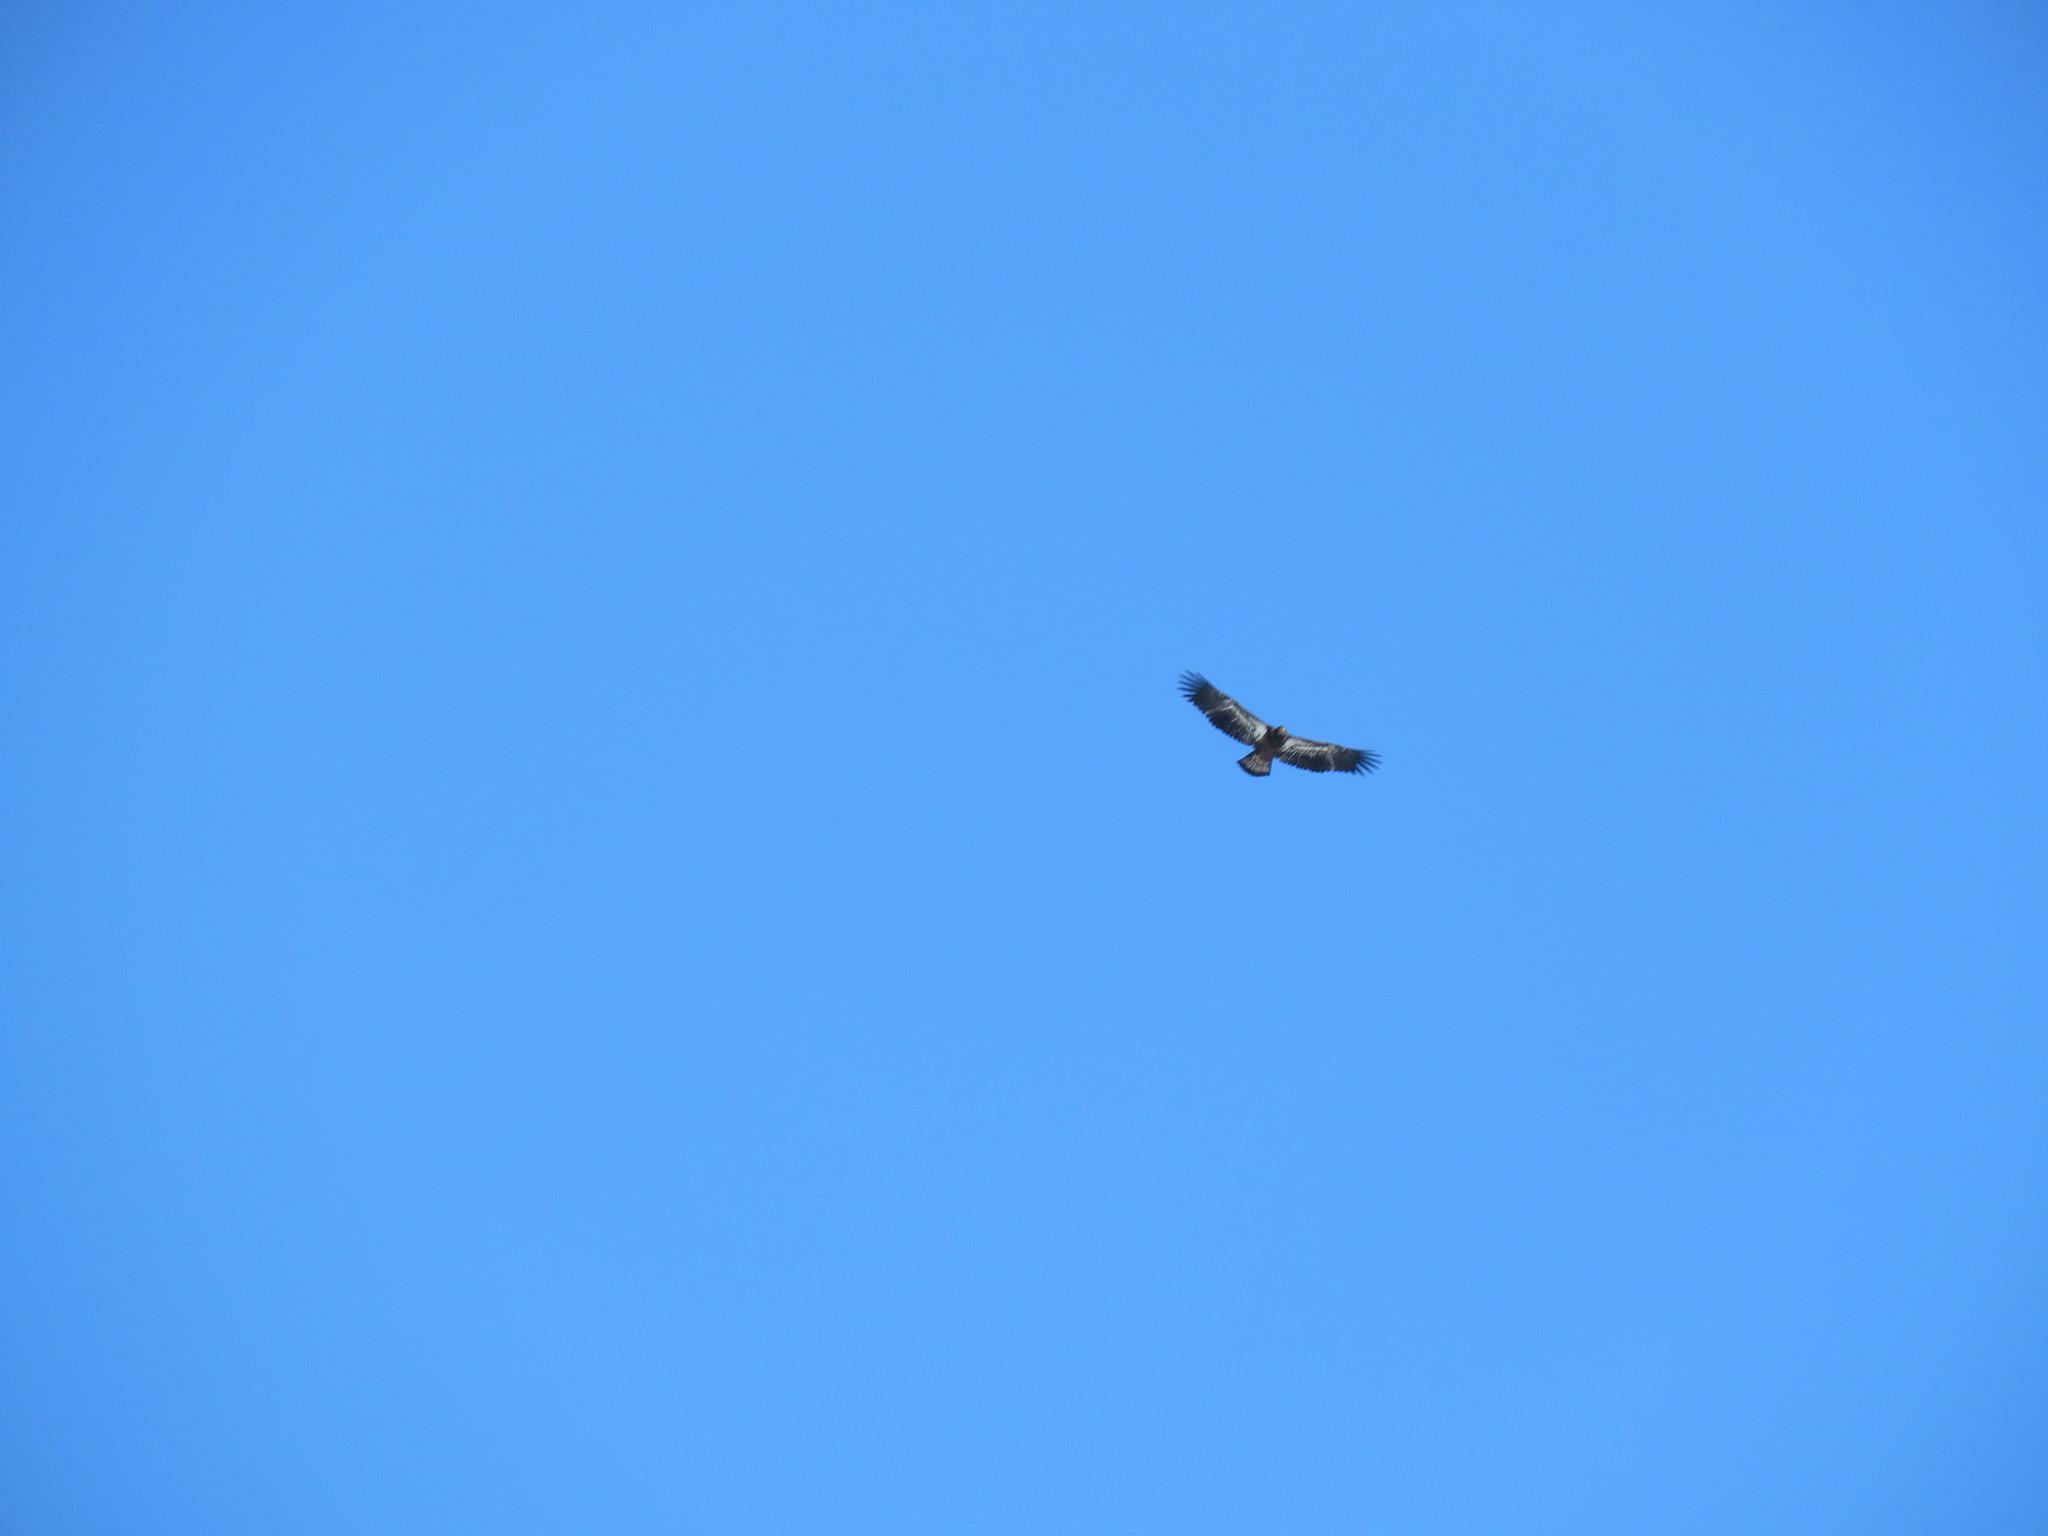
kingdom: Animalia
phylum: Chordata
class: Aves
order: Accipitriformes
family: Accipitridae
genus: Haliaeetus
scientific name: Haliaeetus leucocephalus
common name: Bald eagle
